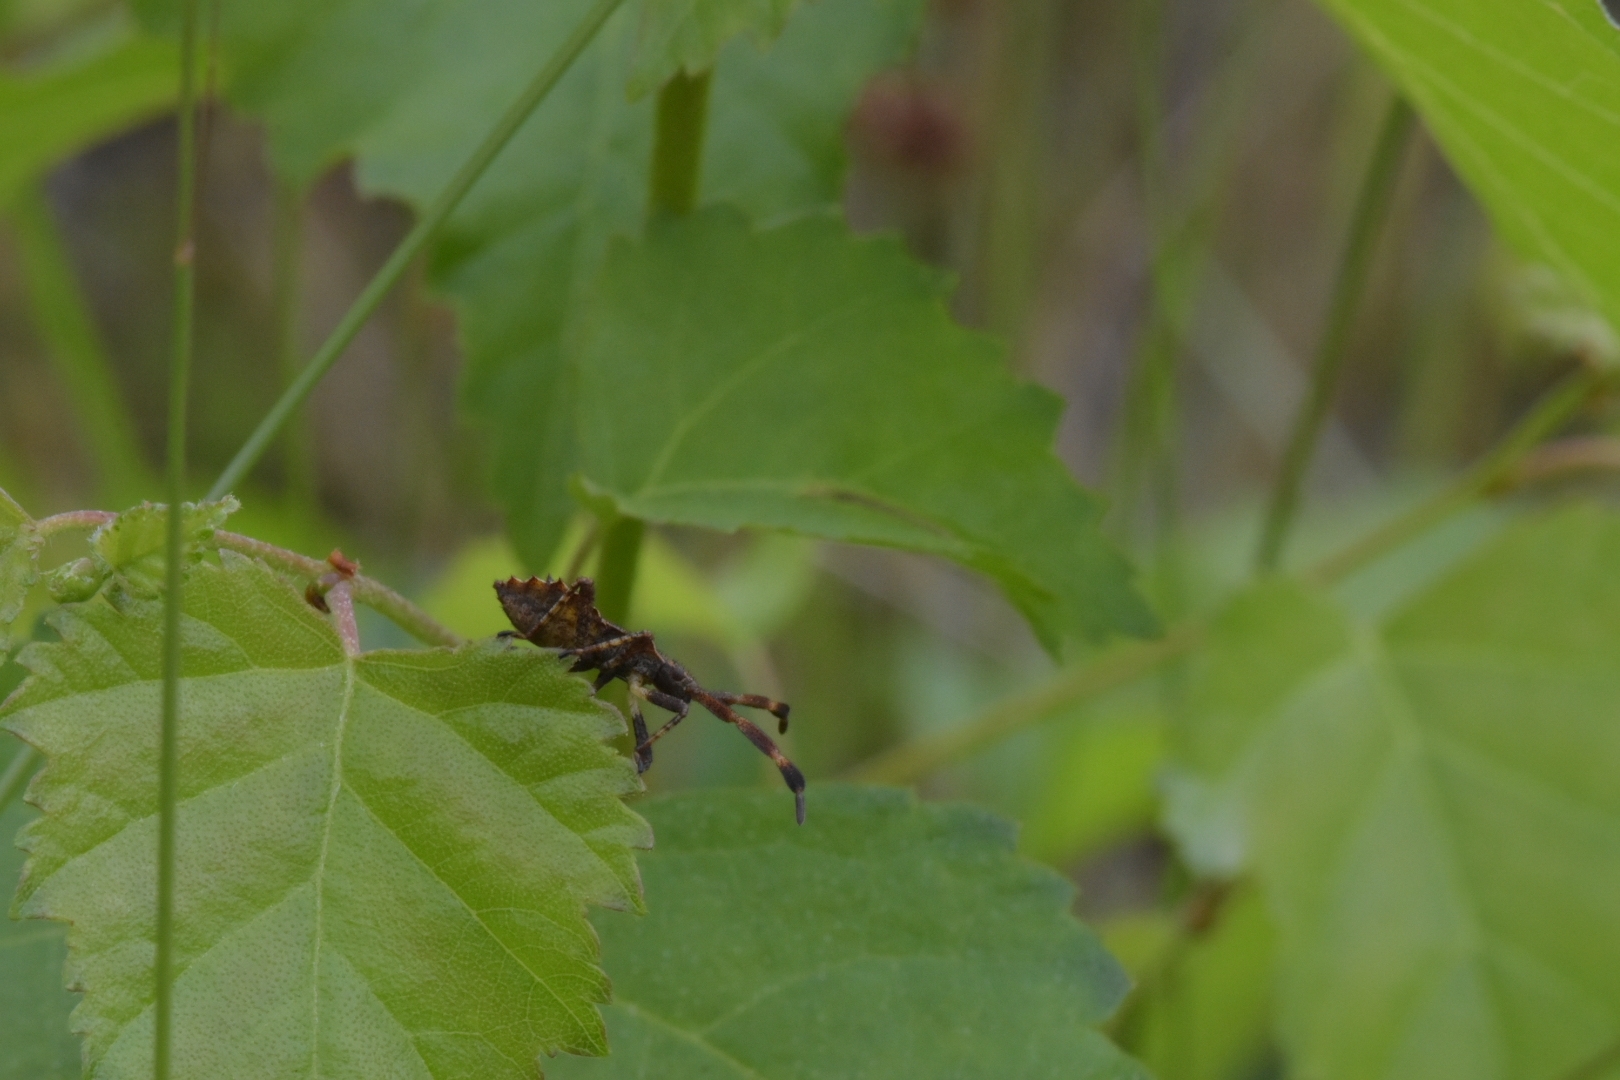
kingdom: Animalia
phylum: Arthropoda
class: Insecta
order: Hemiptera
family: Coreidae
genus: Coreus
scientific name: Coreus marginatus
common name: Dock bug
